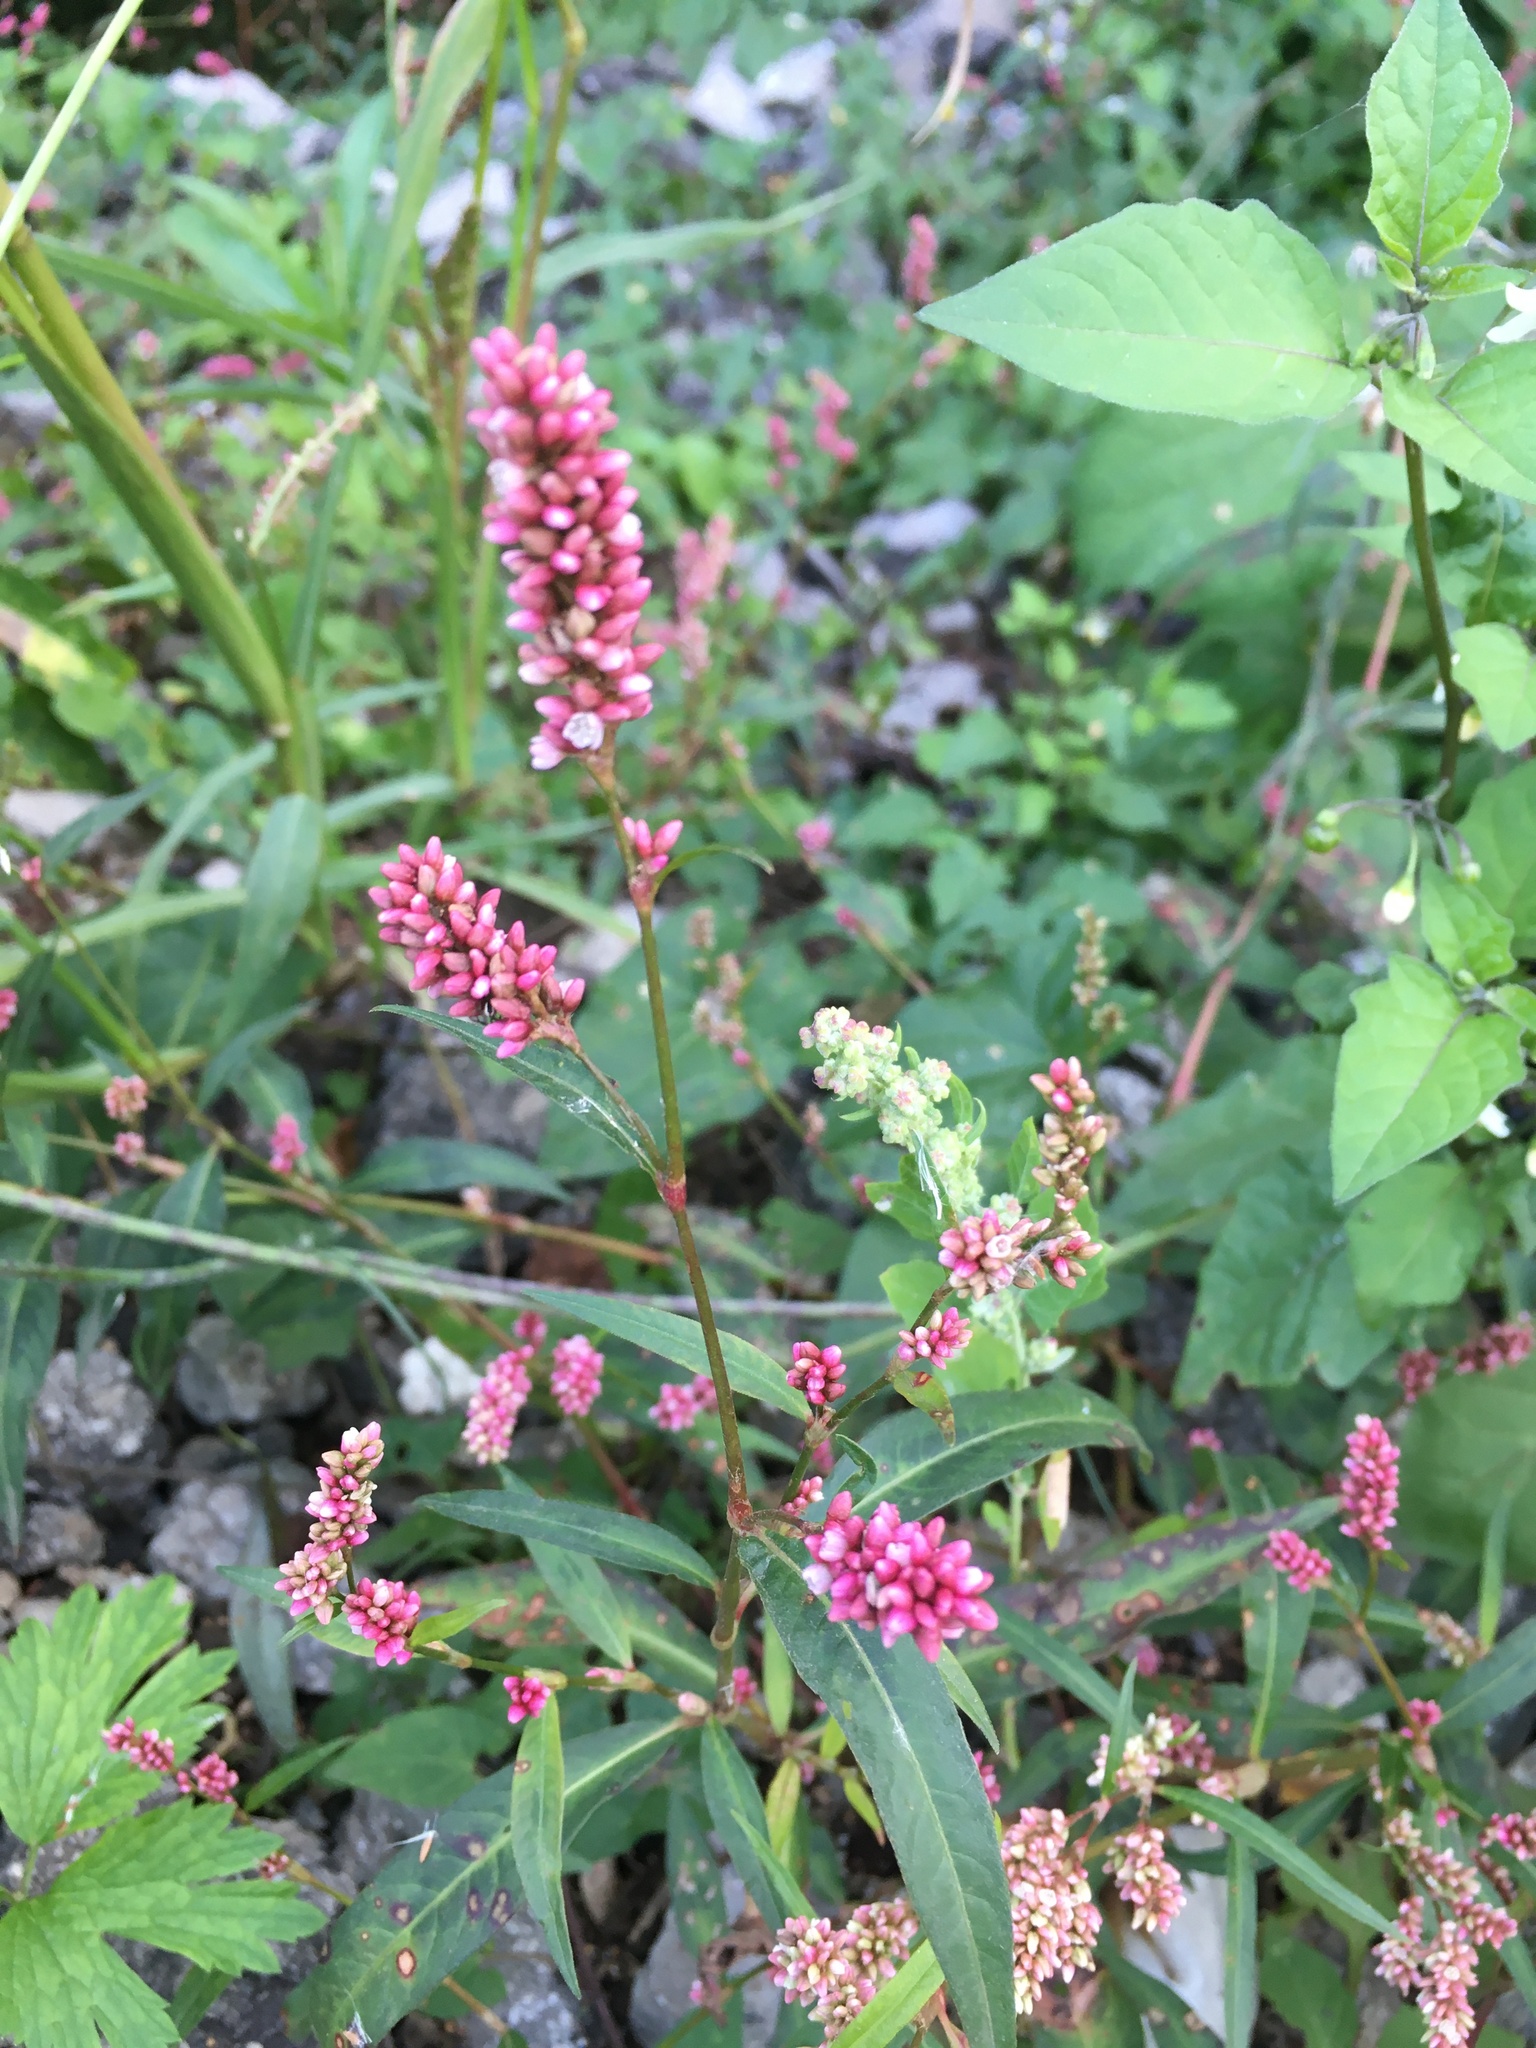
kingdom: Plantae
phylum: Tracheophyta
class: Magnoliopsida
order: Caryophyllales
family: Polygonaceae
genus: Persicaria
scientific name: Persicaria maculosa
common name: Redshank
